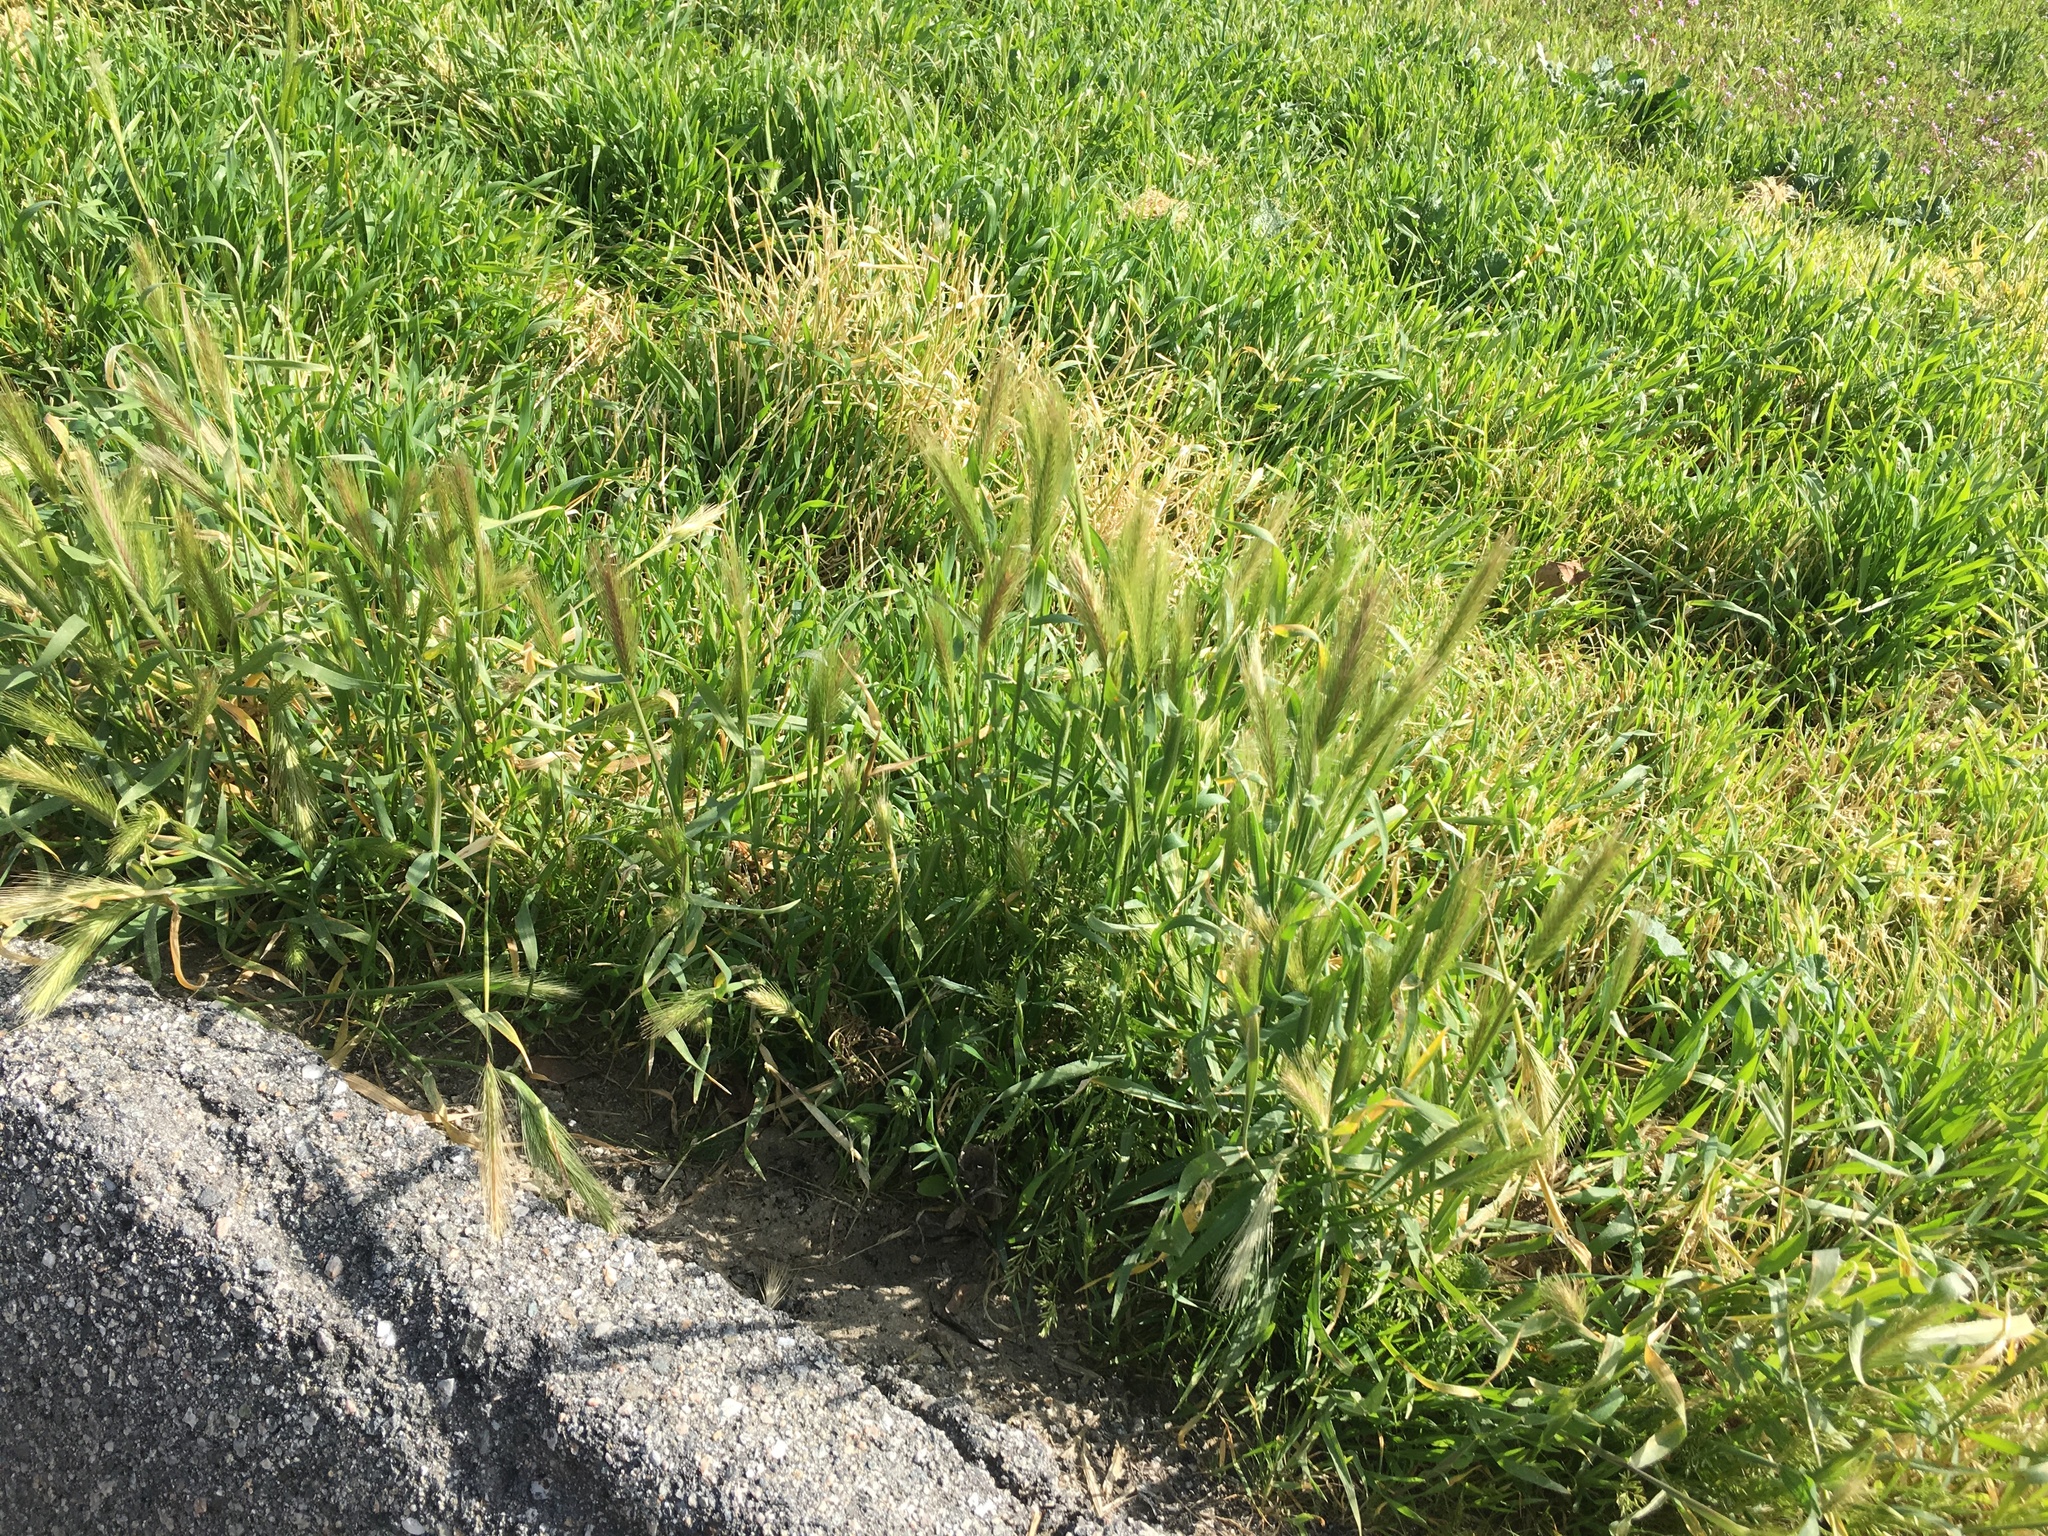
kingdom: Plantae
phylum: Tracheophyta
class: Liliopsida
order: Poales
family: Poaceae
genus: Hordeum
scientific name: Hordeum murinum
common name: Wall barley
